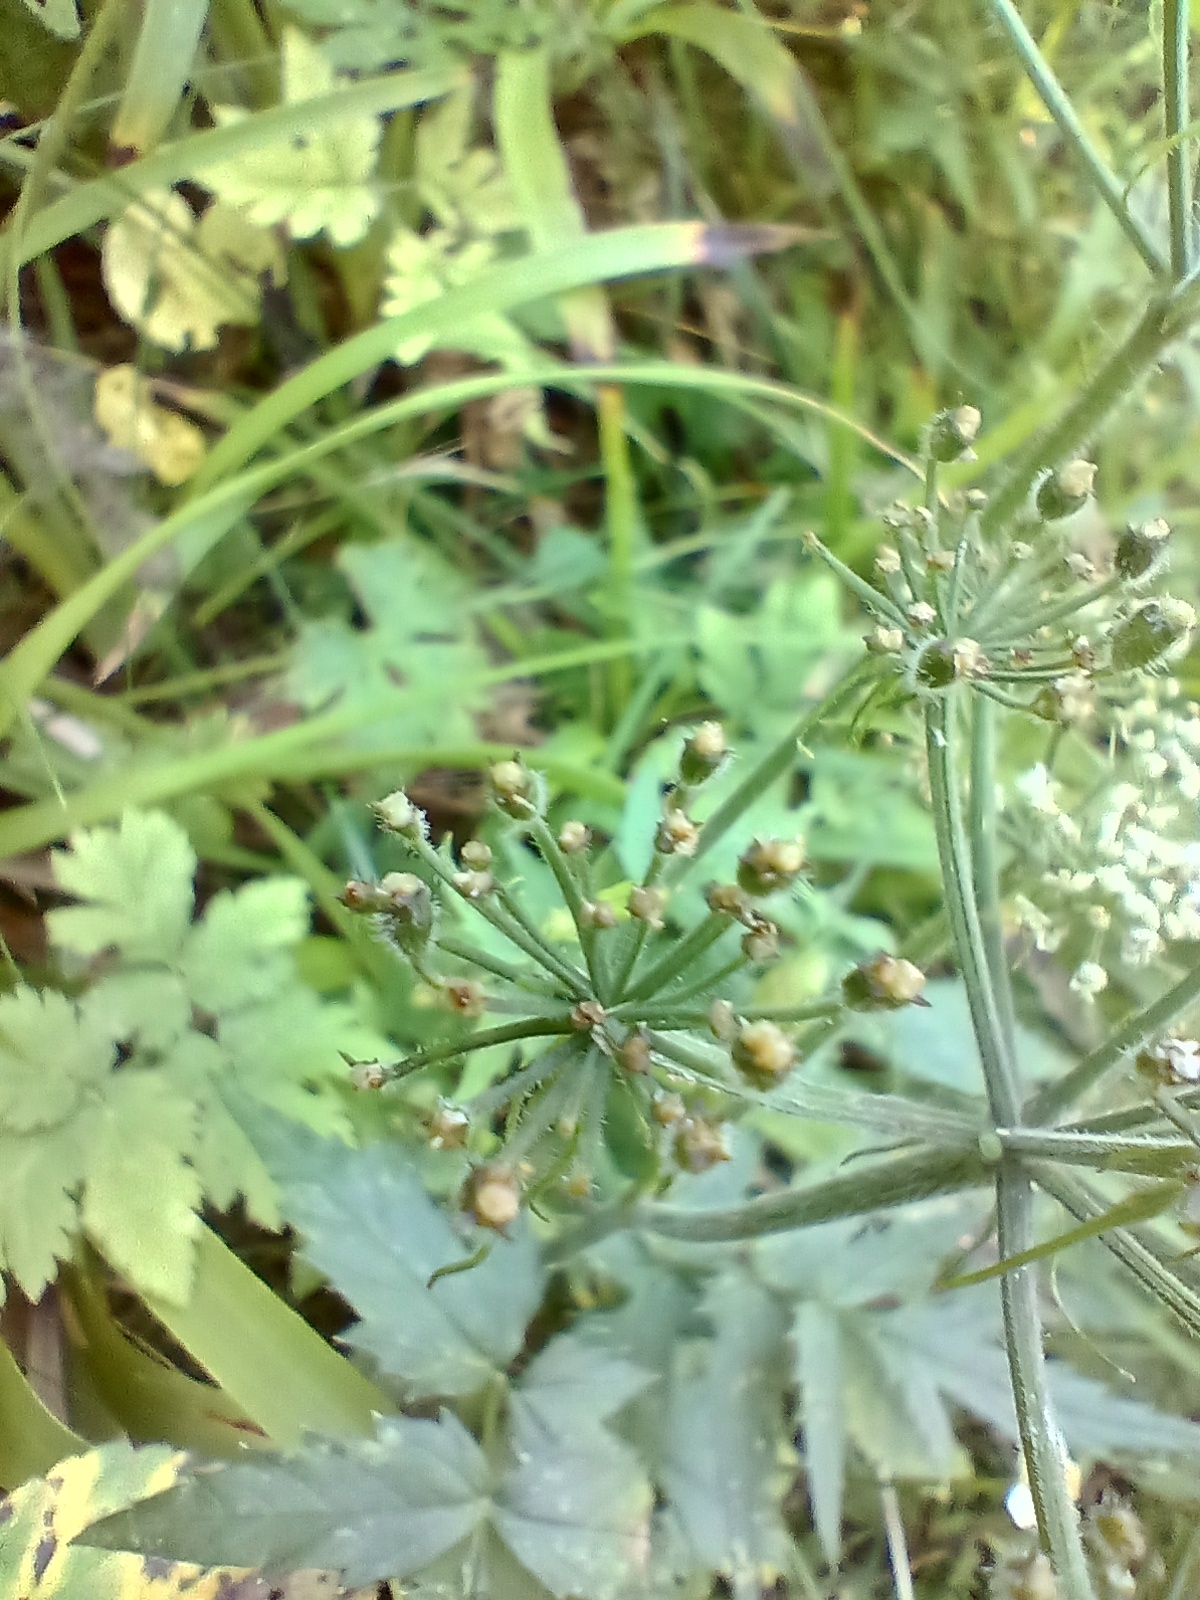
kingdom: Plantae
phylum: Tracheophyta
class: Magnoliopsida
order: Apiales
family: Apiaceae
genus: Heracleum
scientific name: Heracleum austriacum
